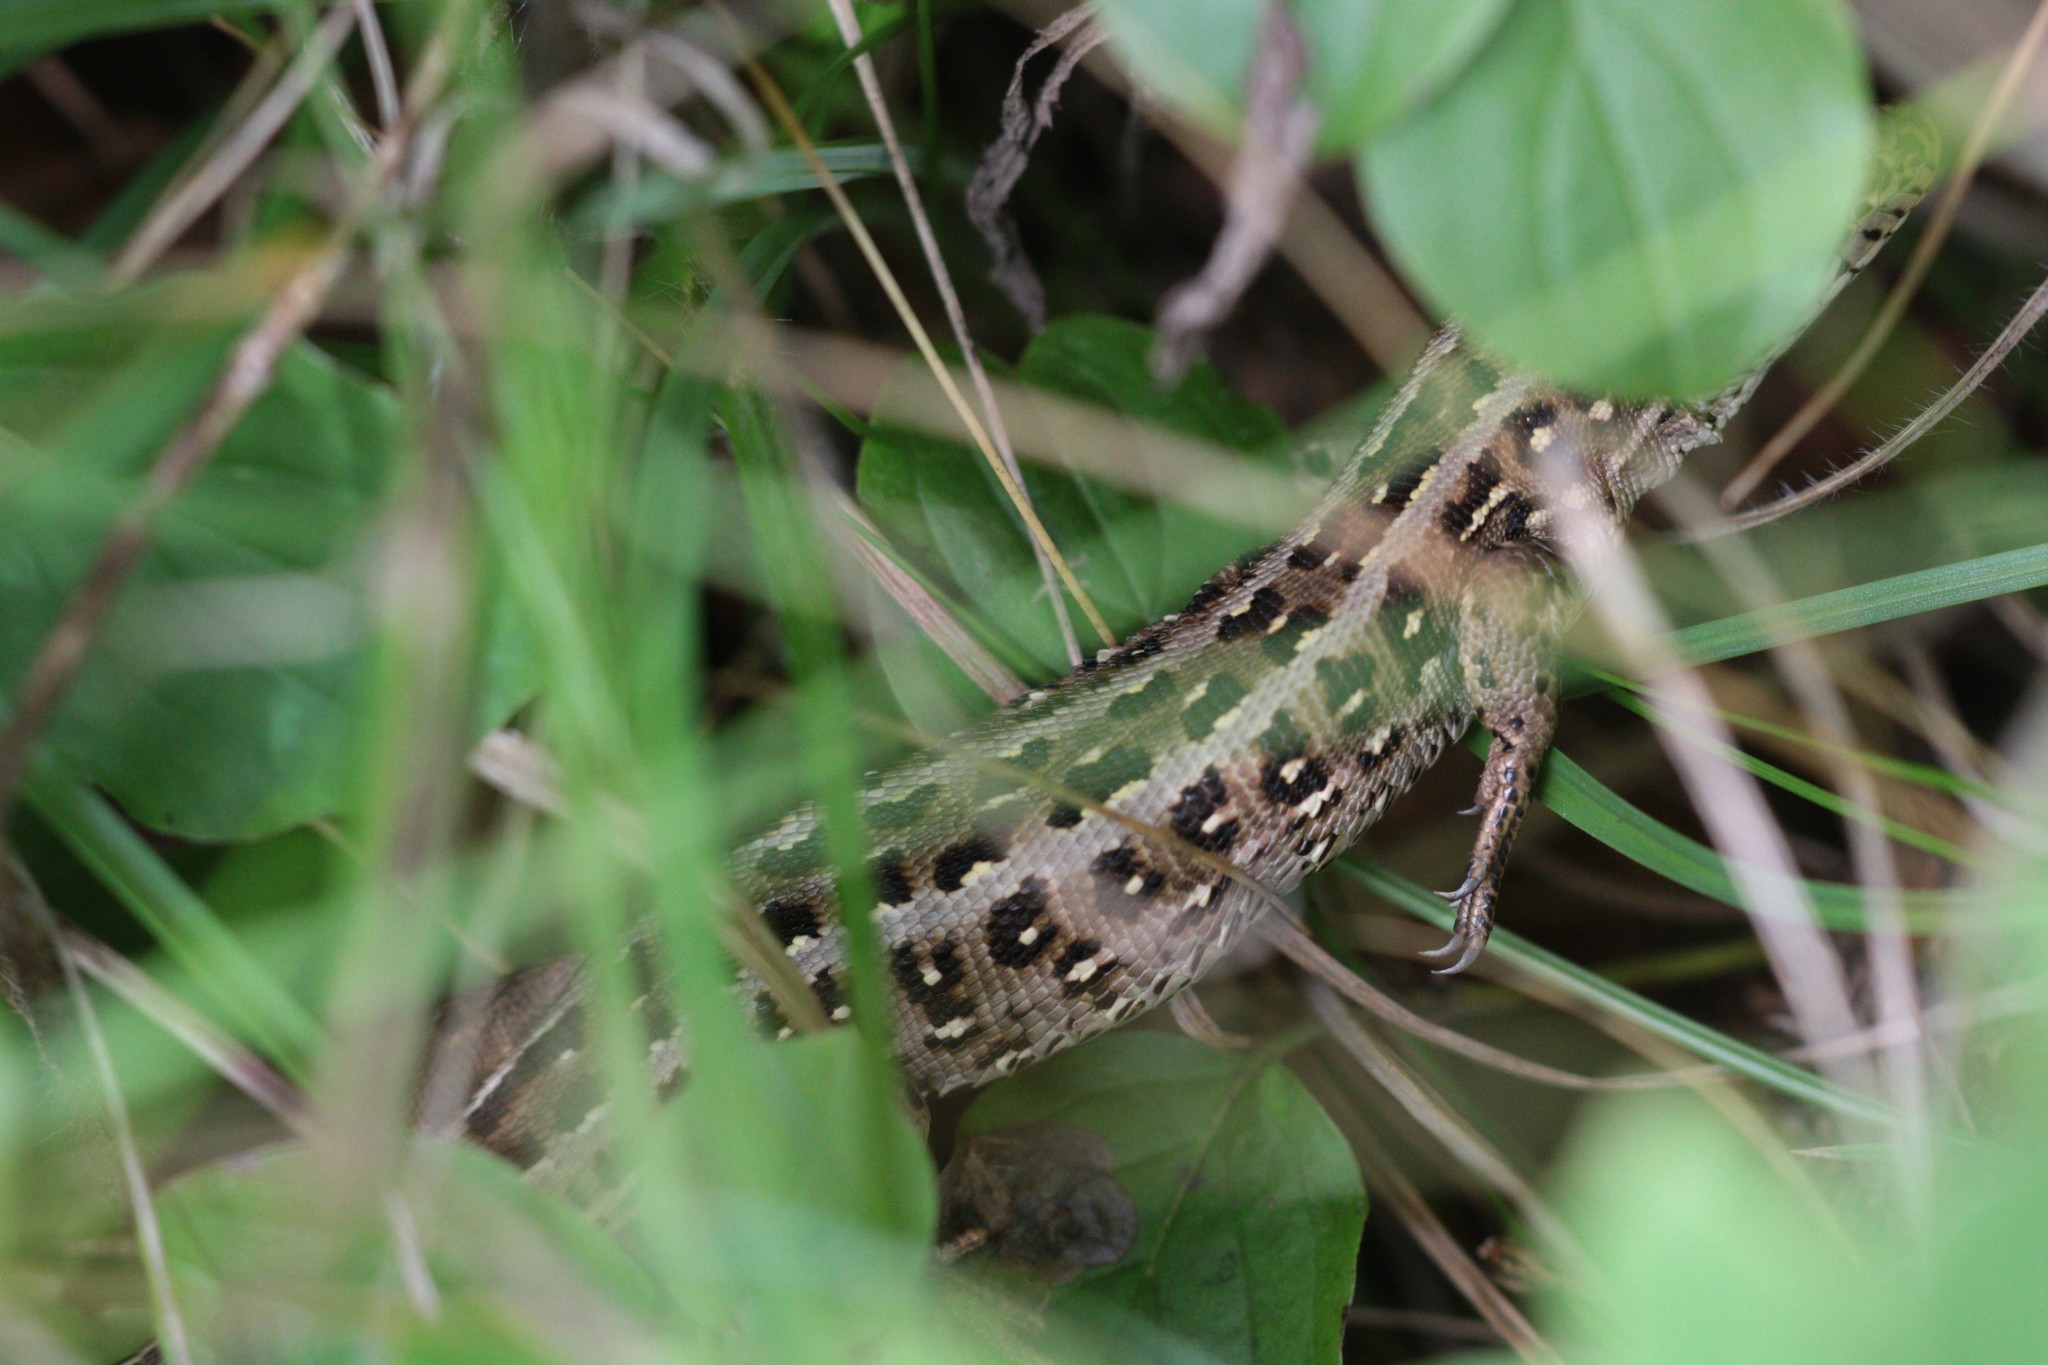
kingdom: Animalia
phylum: Chordata
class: Squamata
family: Lacertidae
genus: Lacerta
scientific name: Lacerta agilis
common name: Sand lizard
